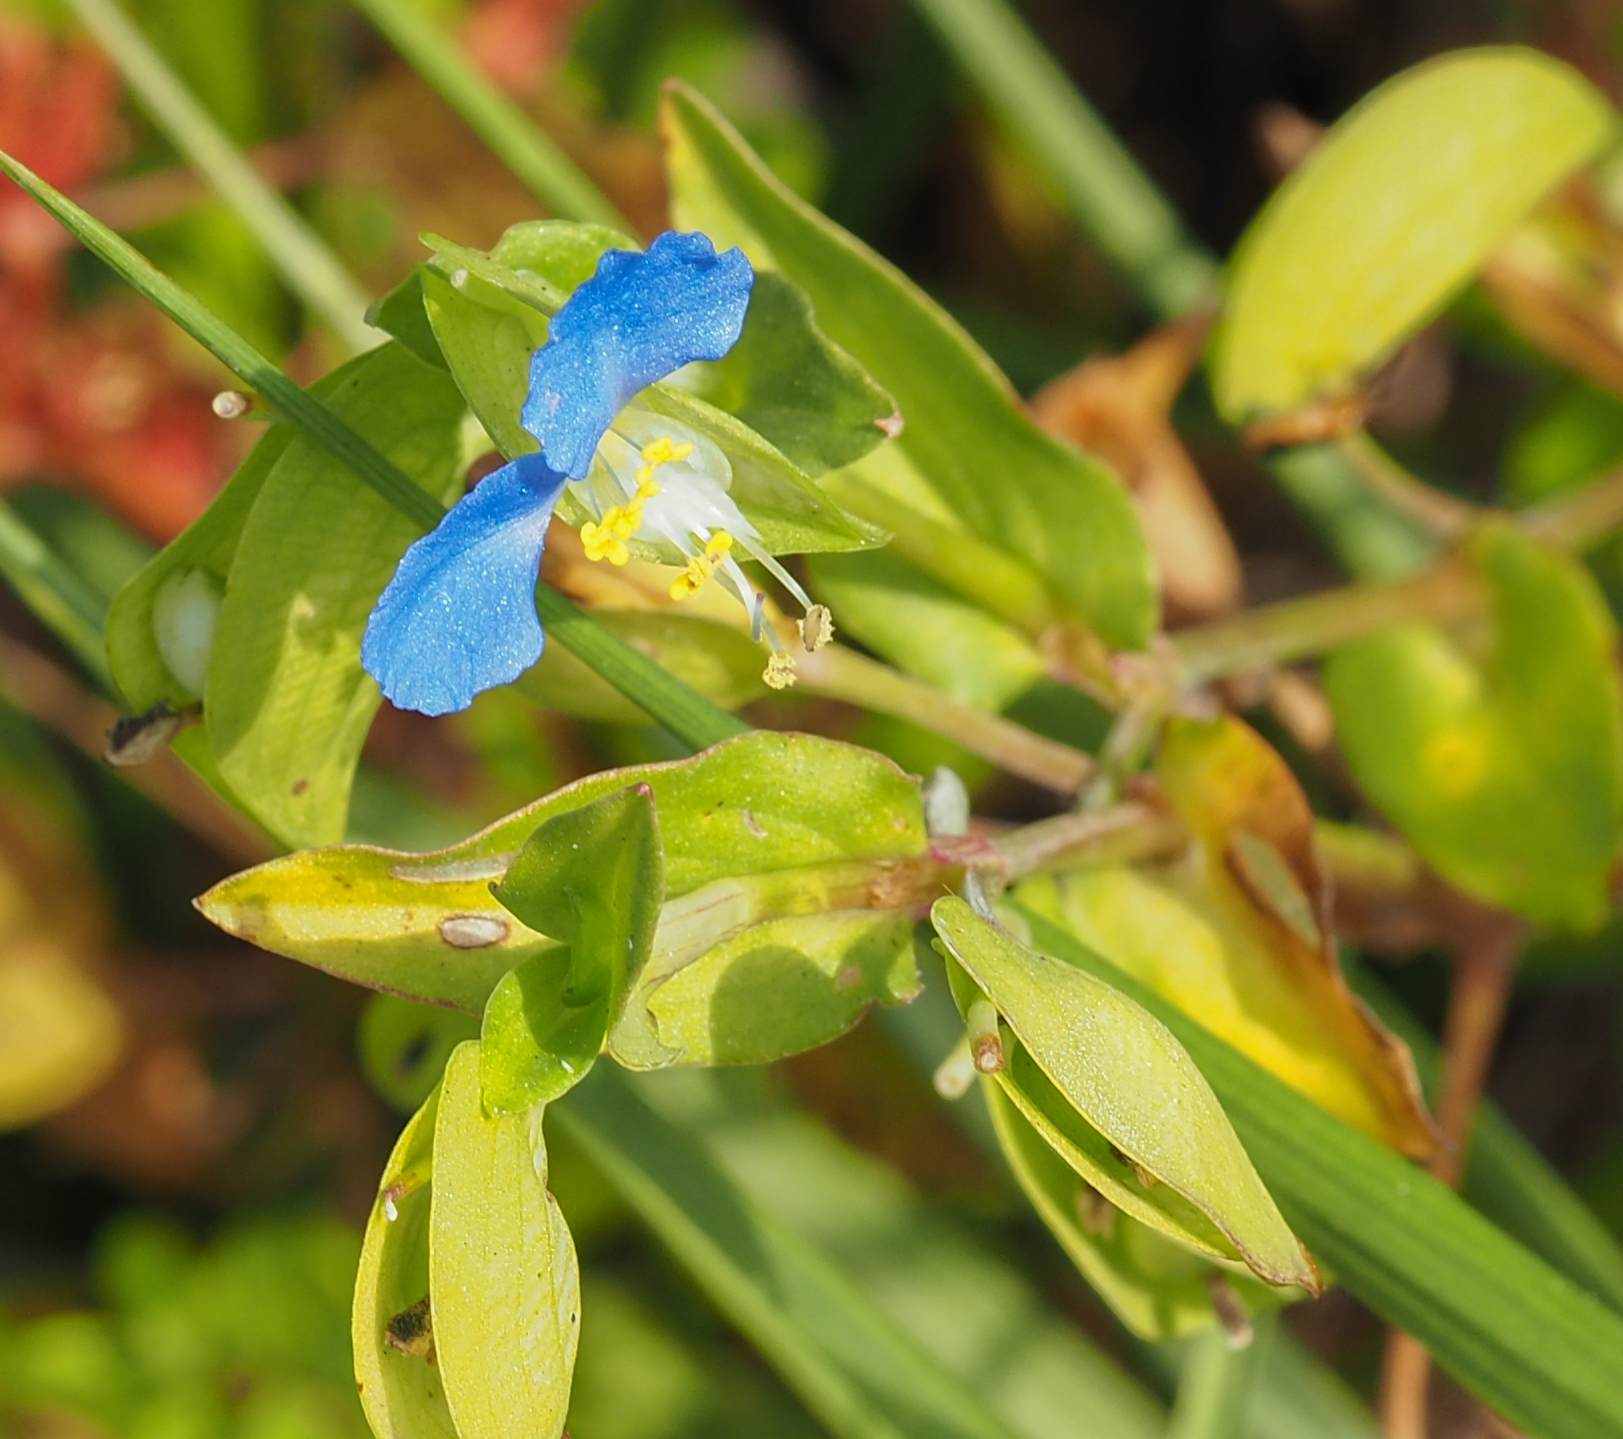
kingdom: Plantae
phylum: Tracheophyta
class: Liliopsida
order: Commelinales
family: Commelinaceae
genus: Commelina
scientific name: Commelina communis
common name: Asiatic dayflower
